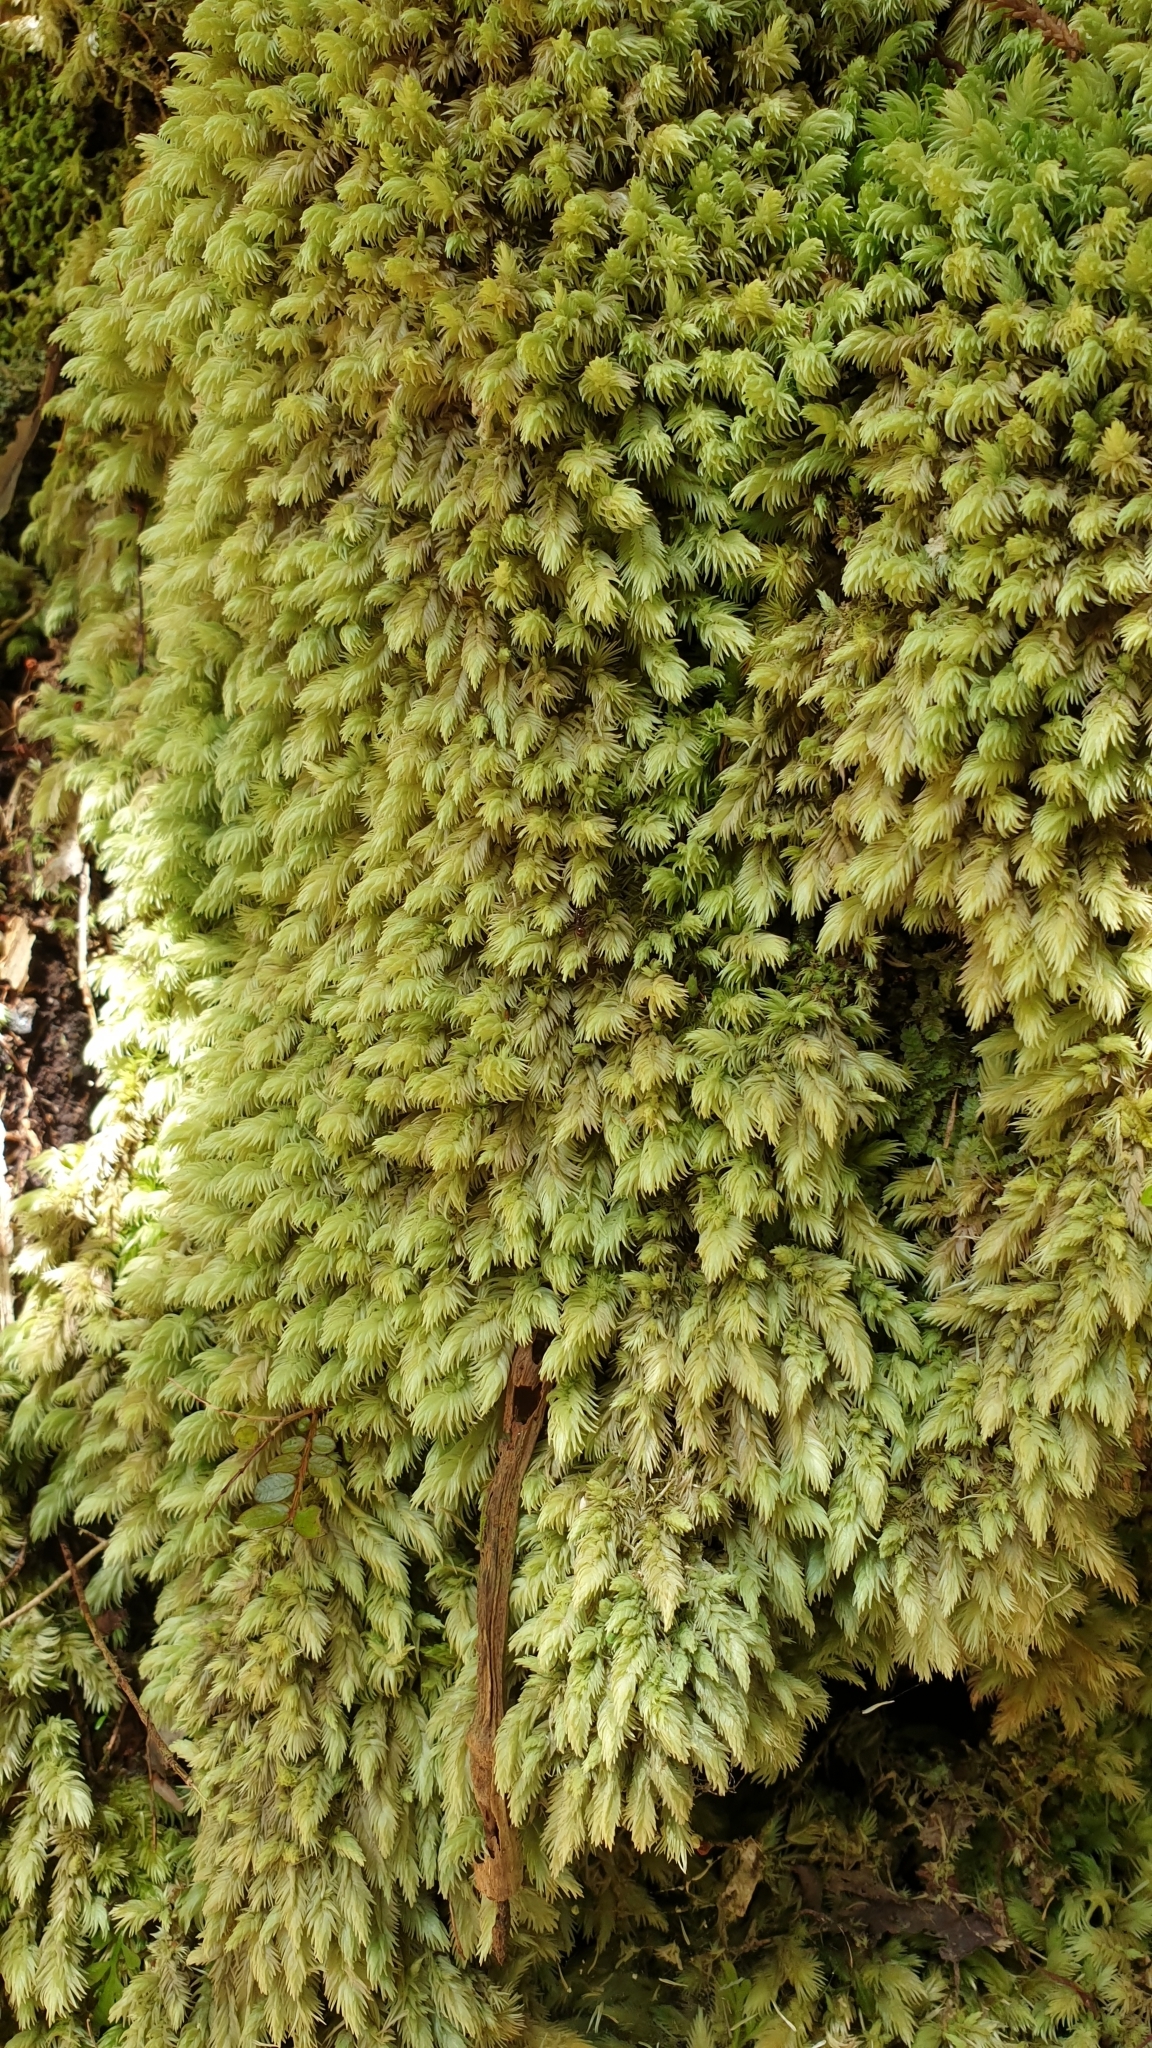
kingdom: Plantae
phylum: Bryophyta
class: Bryopsida
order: Dicranales
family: Leucobryaceae
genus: Leucobryum
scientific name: Leucobryum javense
